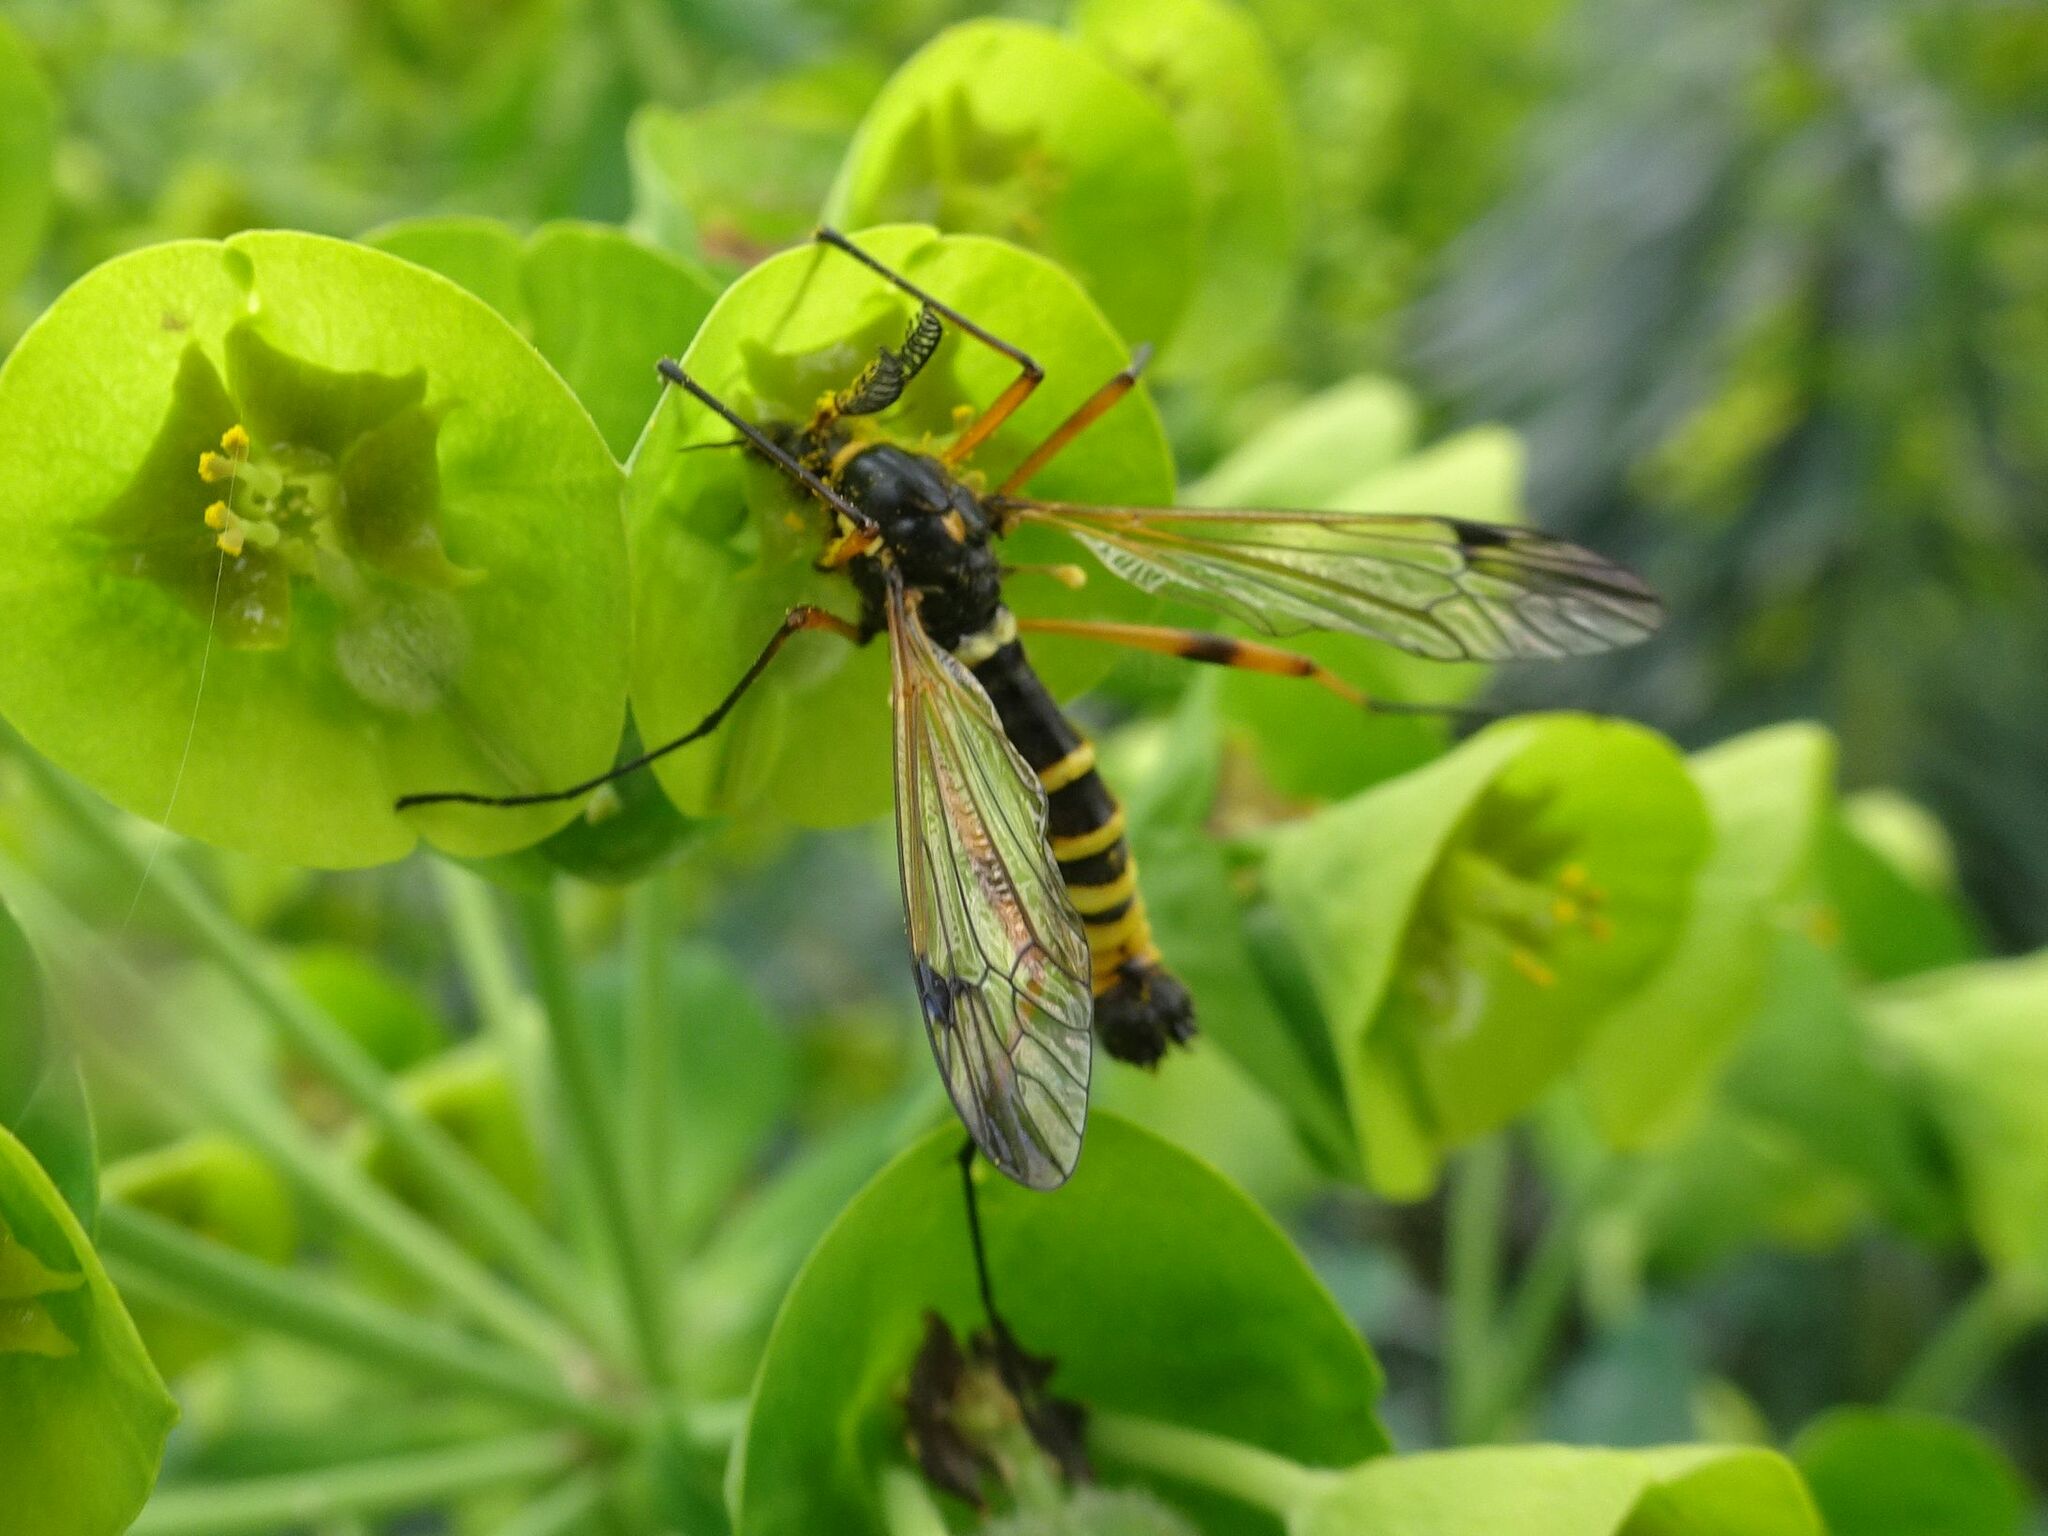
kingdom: Animalia
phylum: Arthropoda
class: Insecta
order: Diptera
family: Tipulidae
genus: Ctenophora
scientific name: Ctenophora flaveolata
